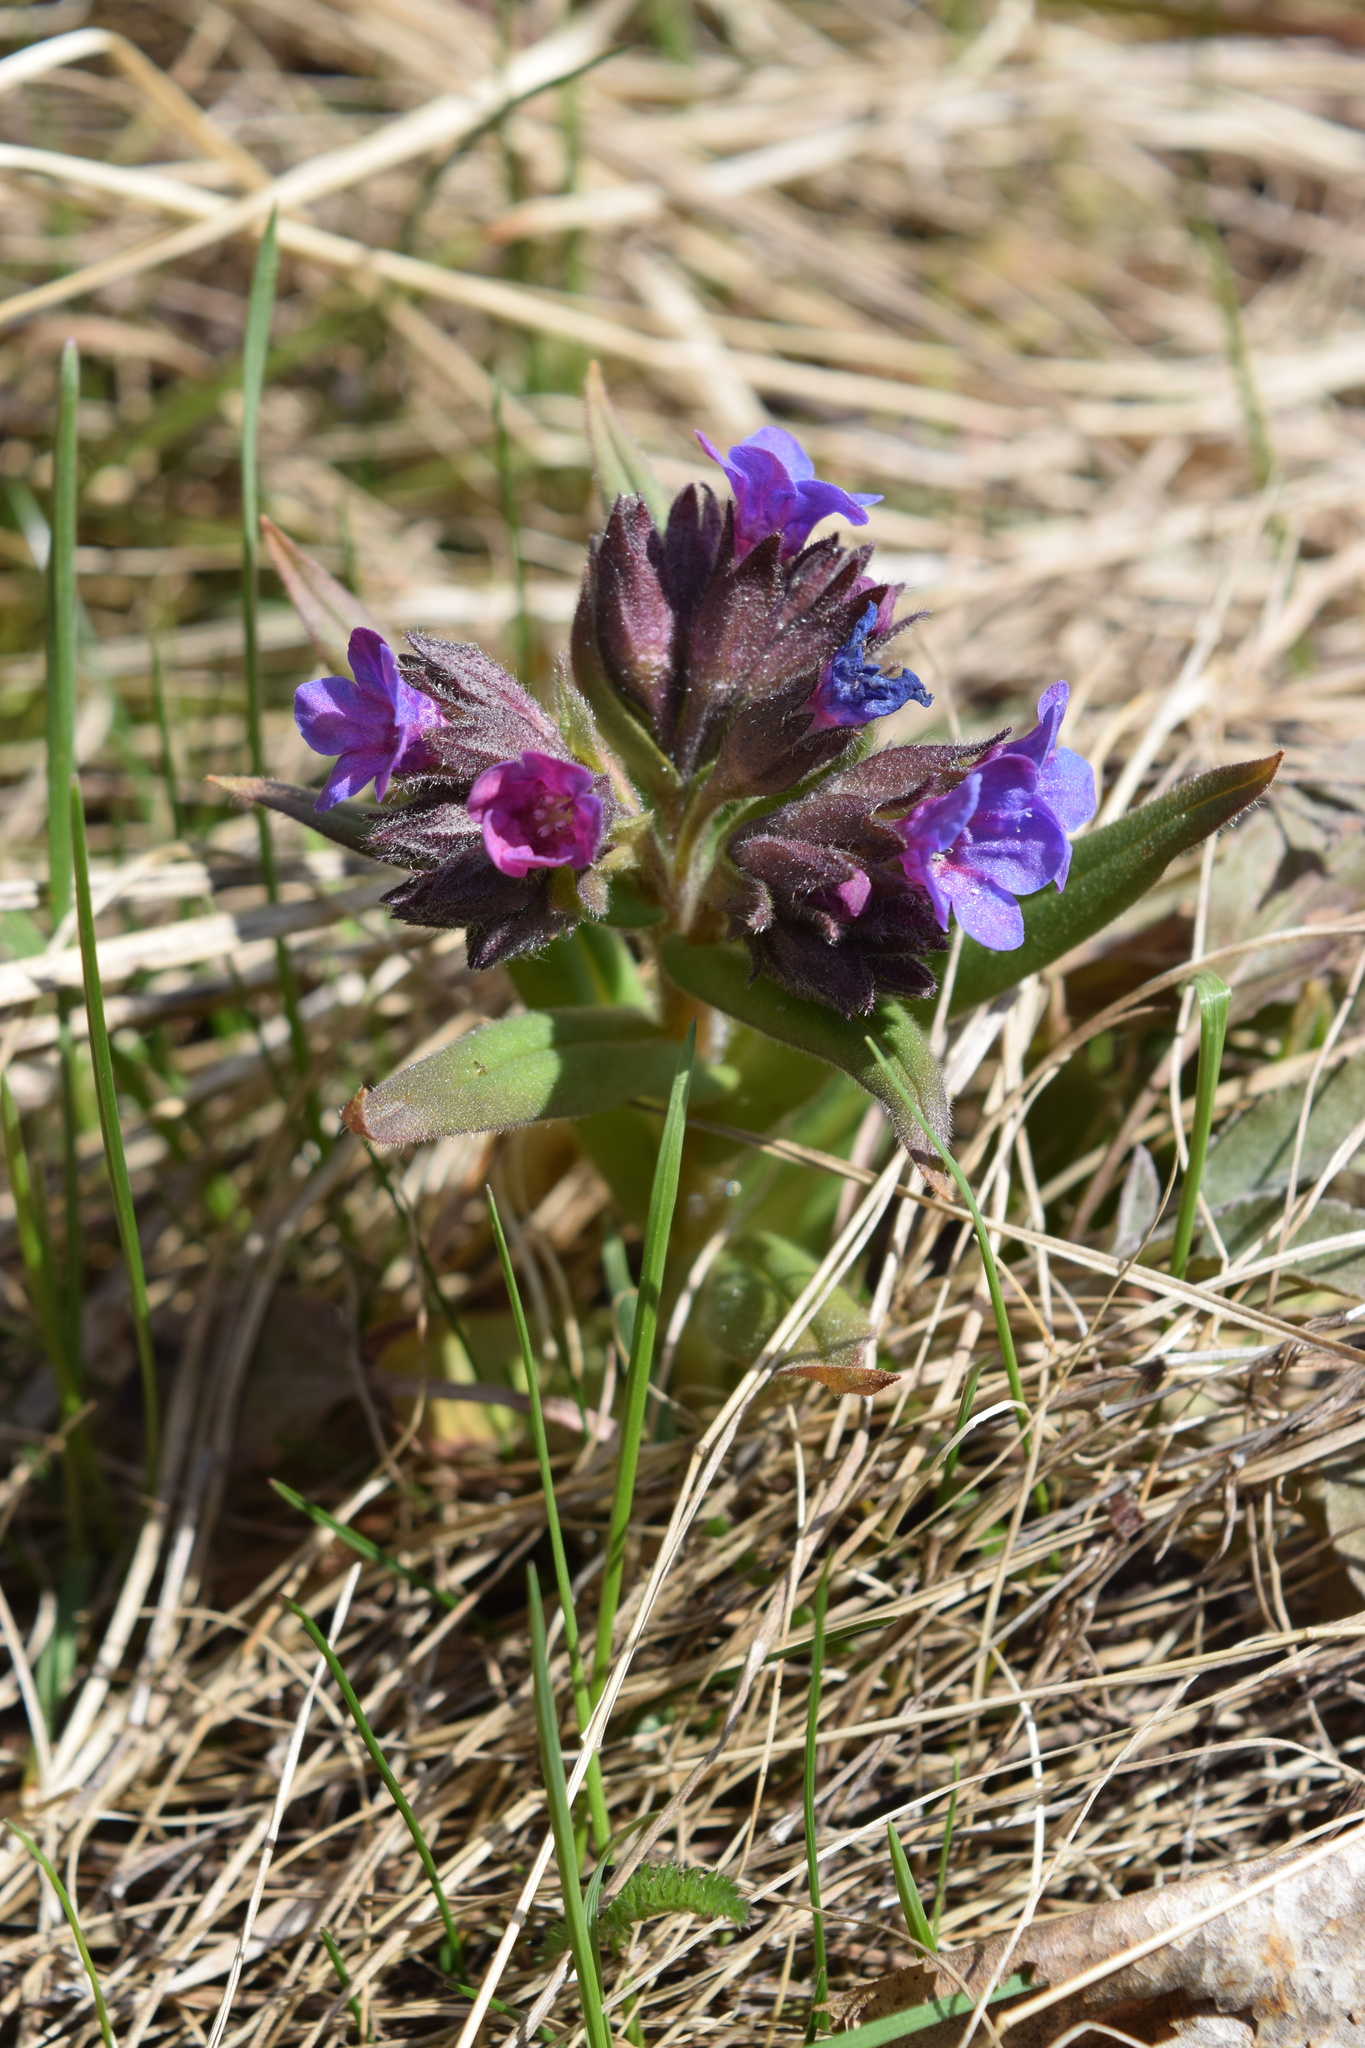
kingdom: Plantae
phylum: Tracheophyta
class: Magnoliopsida
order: Boraginales
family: Boraginaceae
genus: Pulmonaria
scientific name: Pulmonaria angustifolia
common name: Blue cowslip
